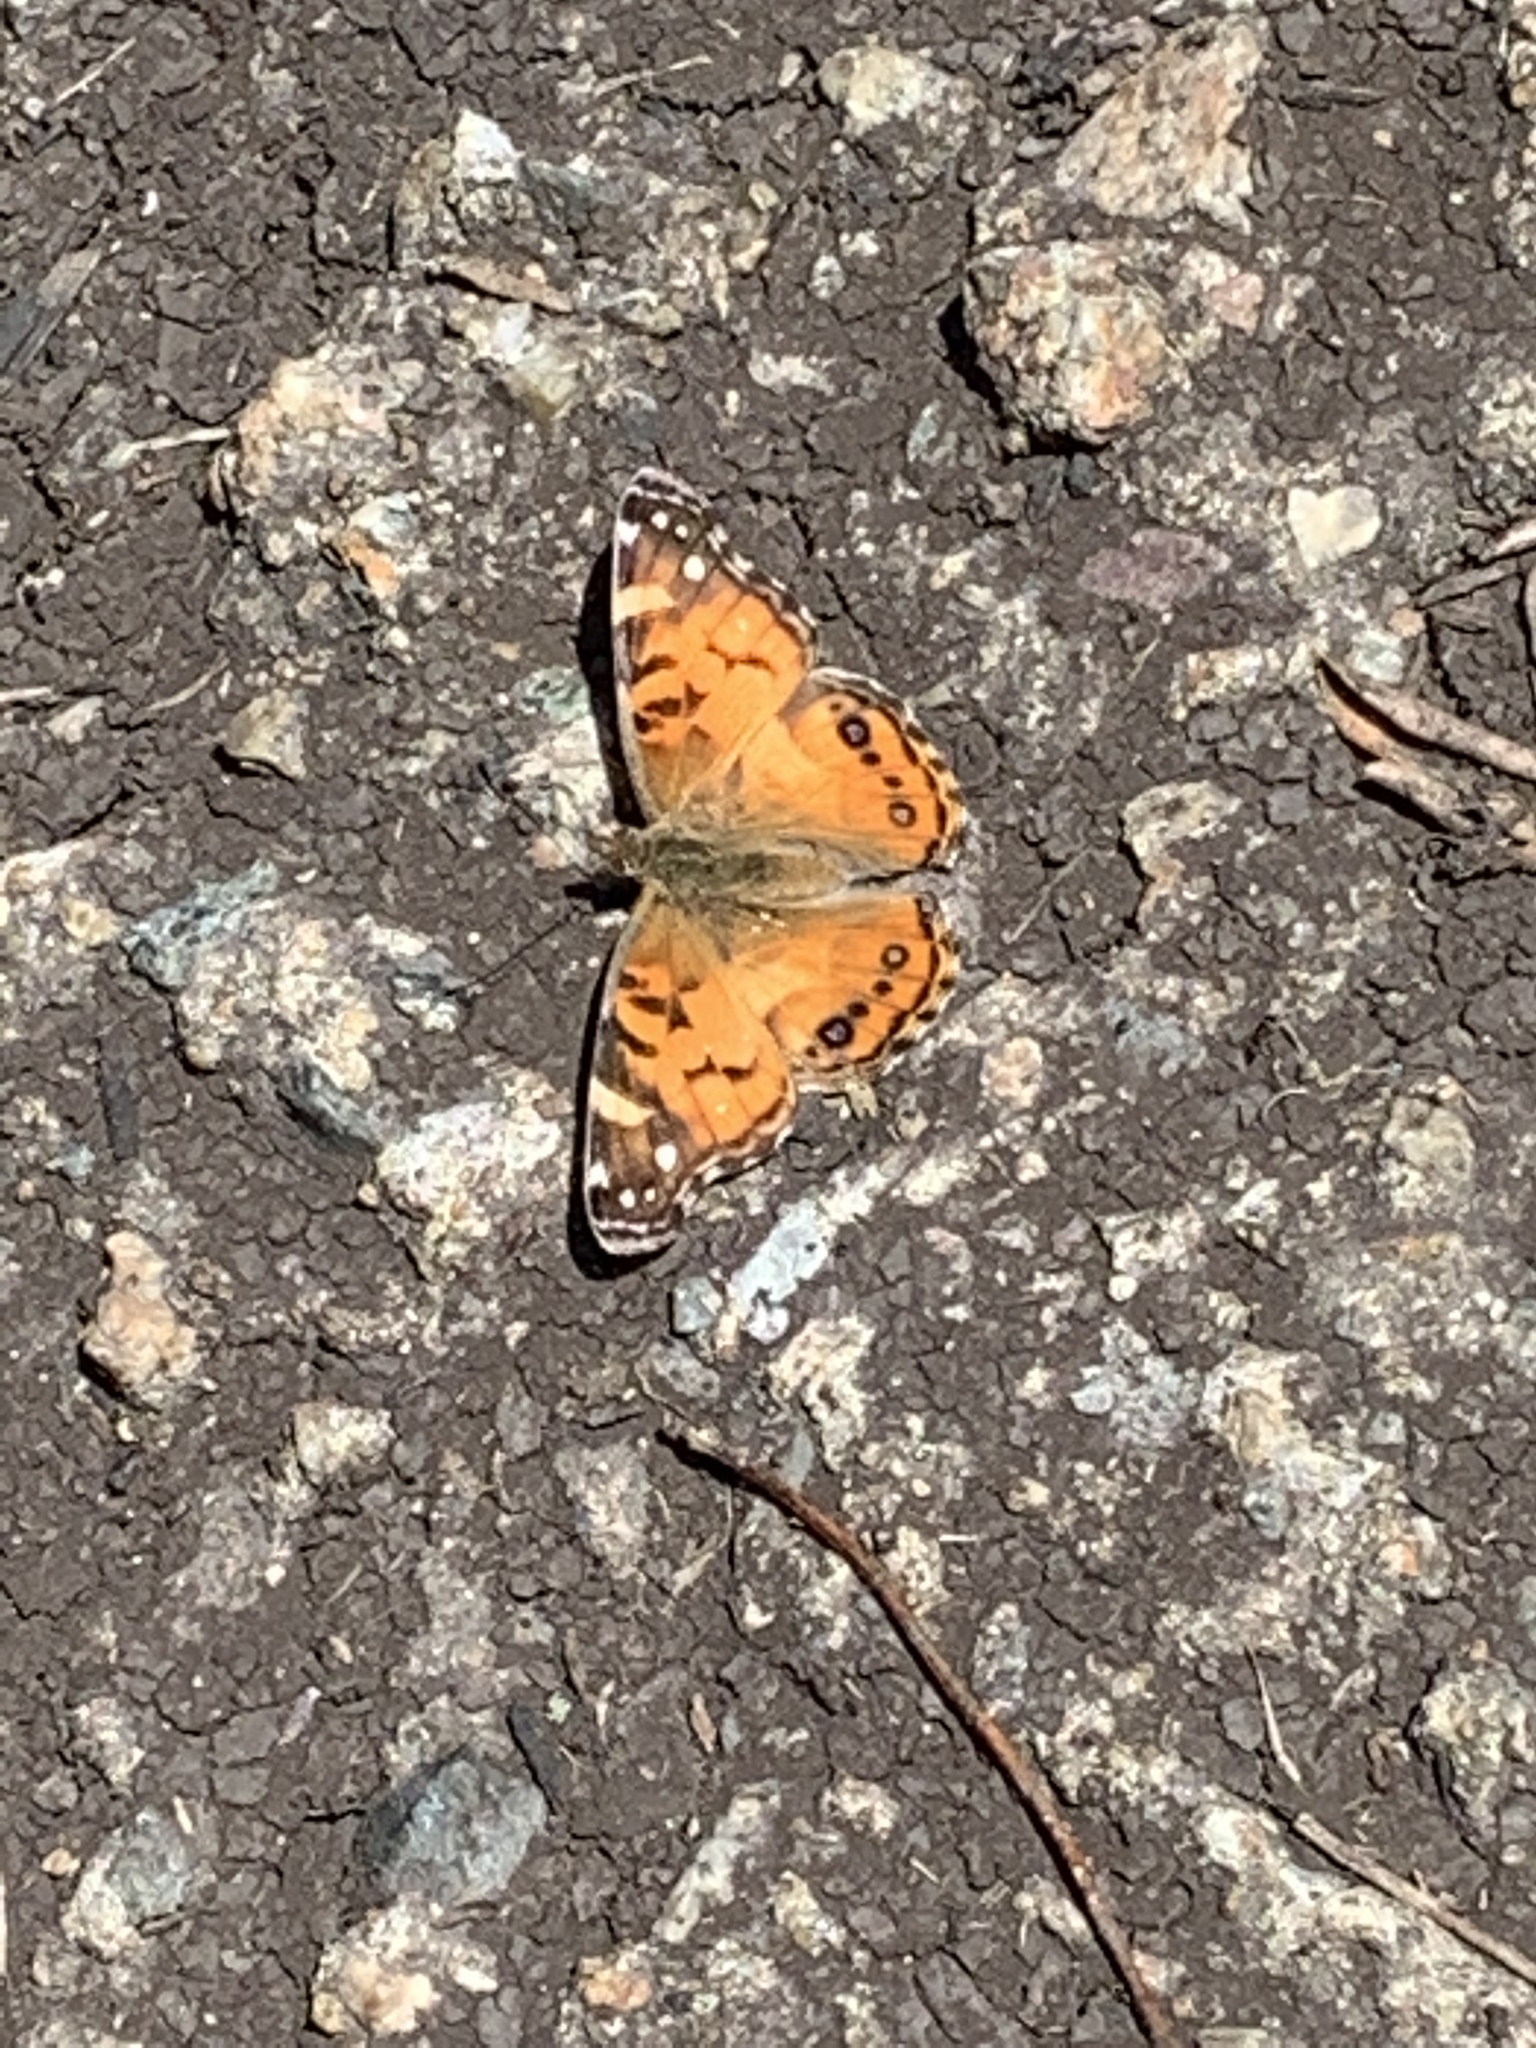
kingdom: Animalia
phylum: Arthropoda
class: Insecta
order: Lepidoptera
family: Nymphalidae
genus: Vanessa
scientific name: Vanessa virginiensis
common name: American lady
